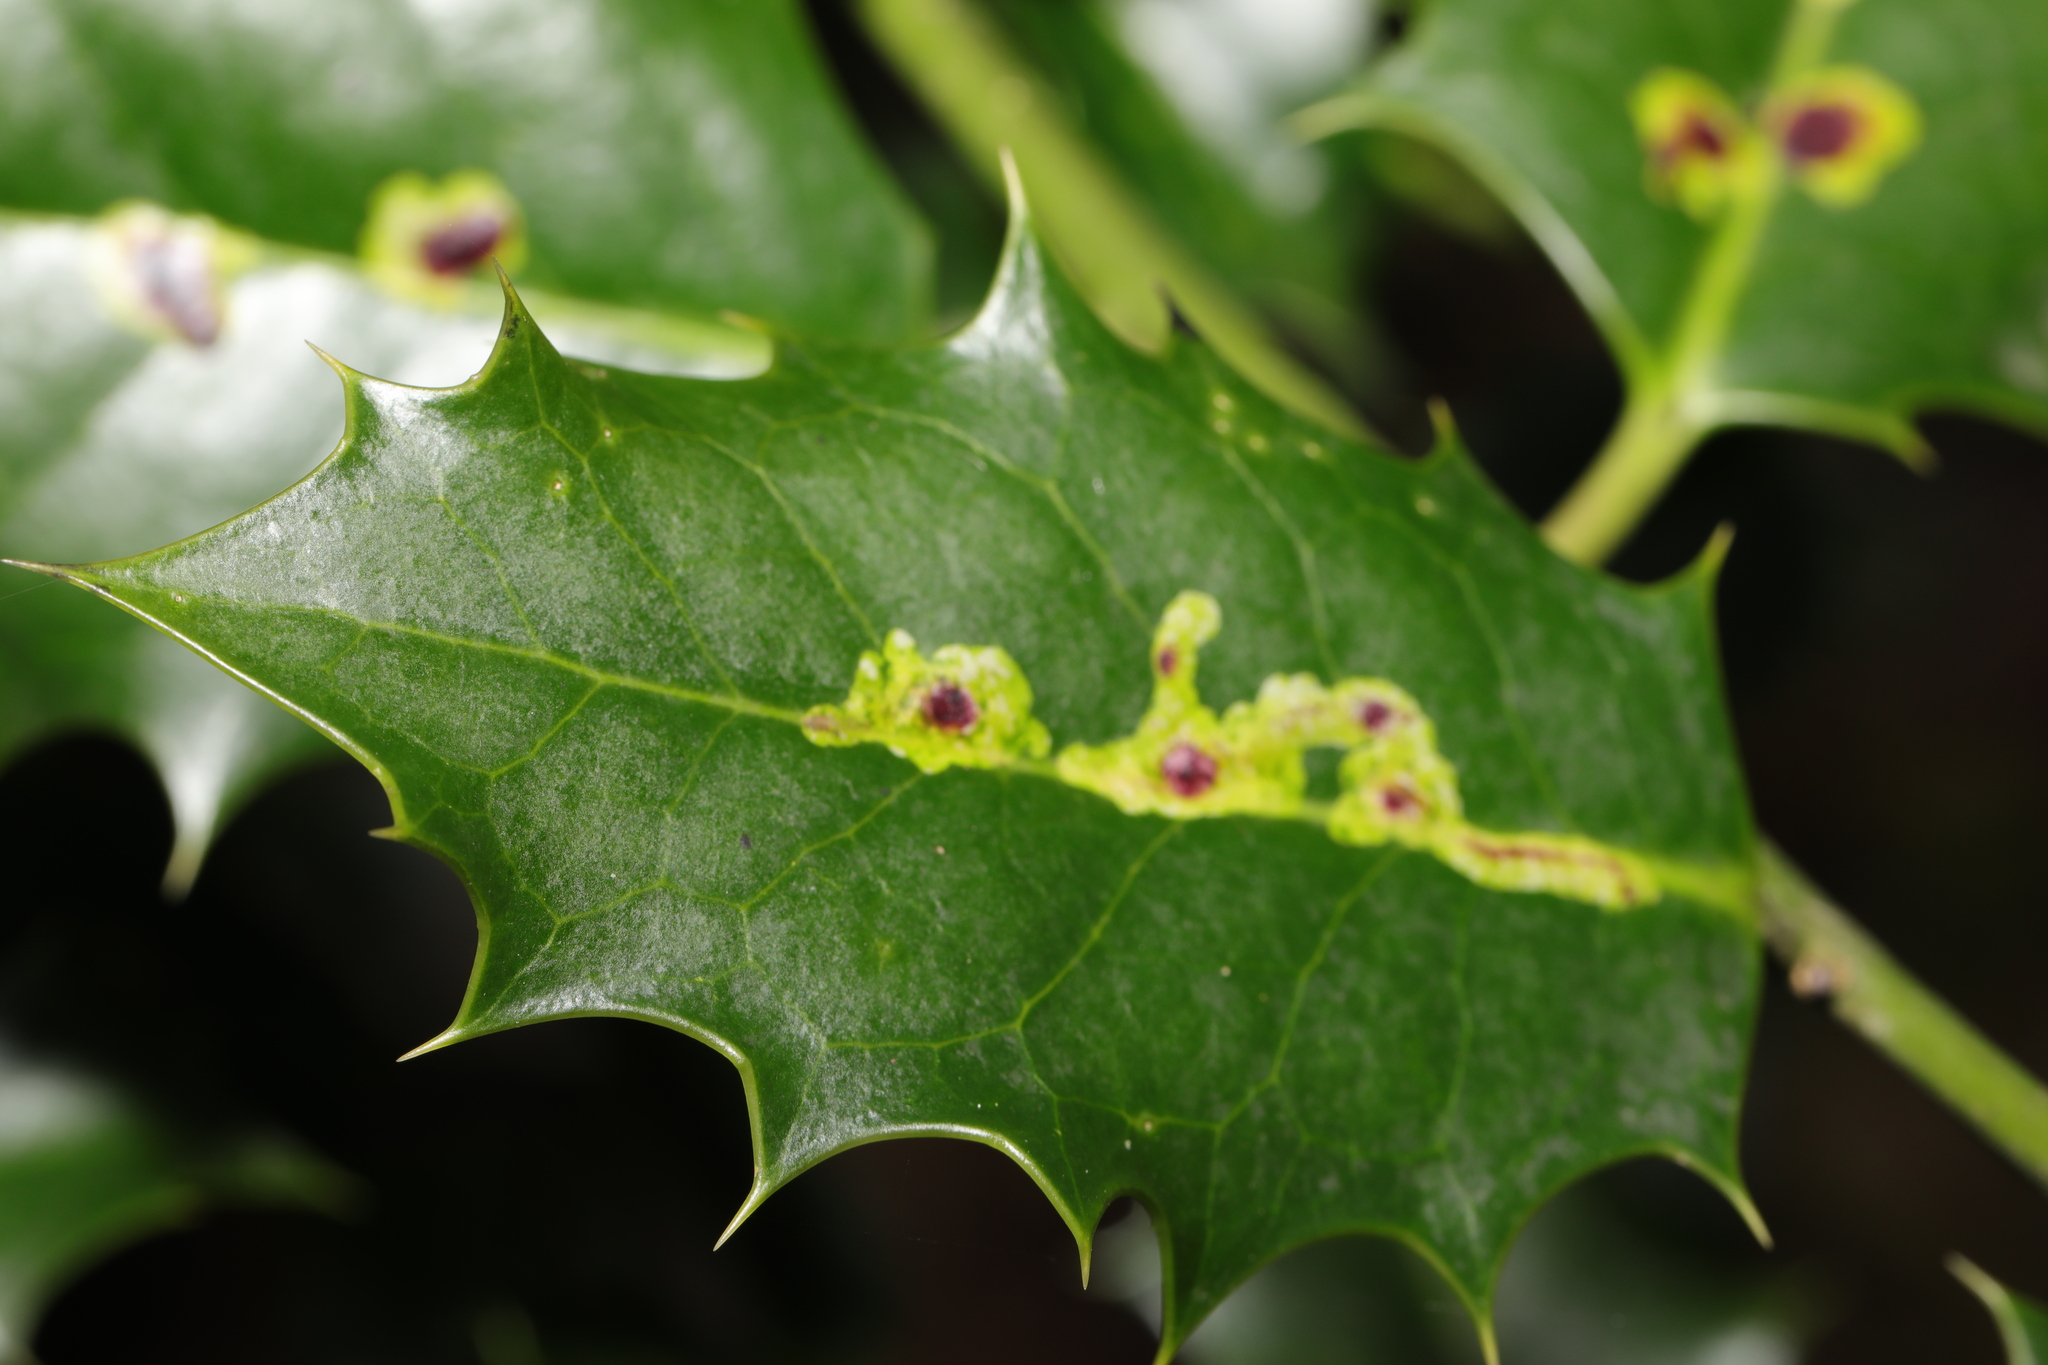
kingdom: Animalia
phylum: Arthropoda
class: Insecta
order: Diptera
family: Agromyzidae
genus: Phytomyza
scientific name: Phytomyza ilicis
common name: Holly leafminer
